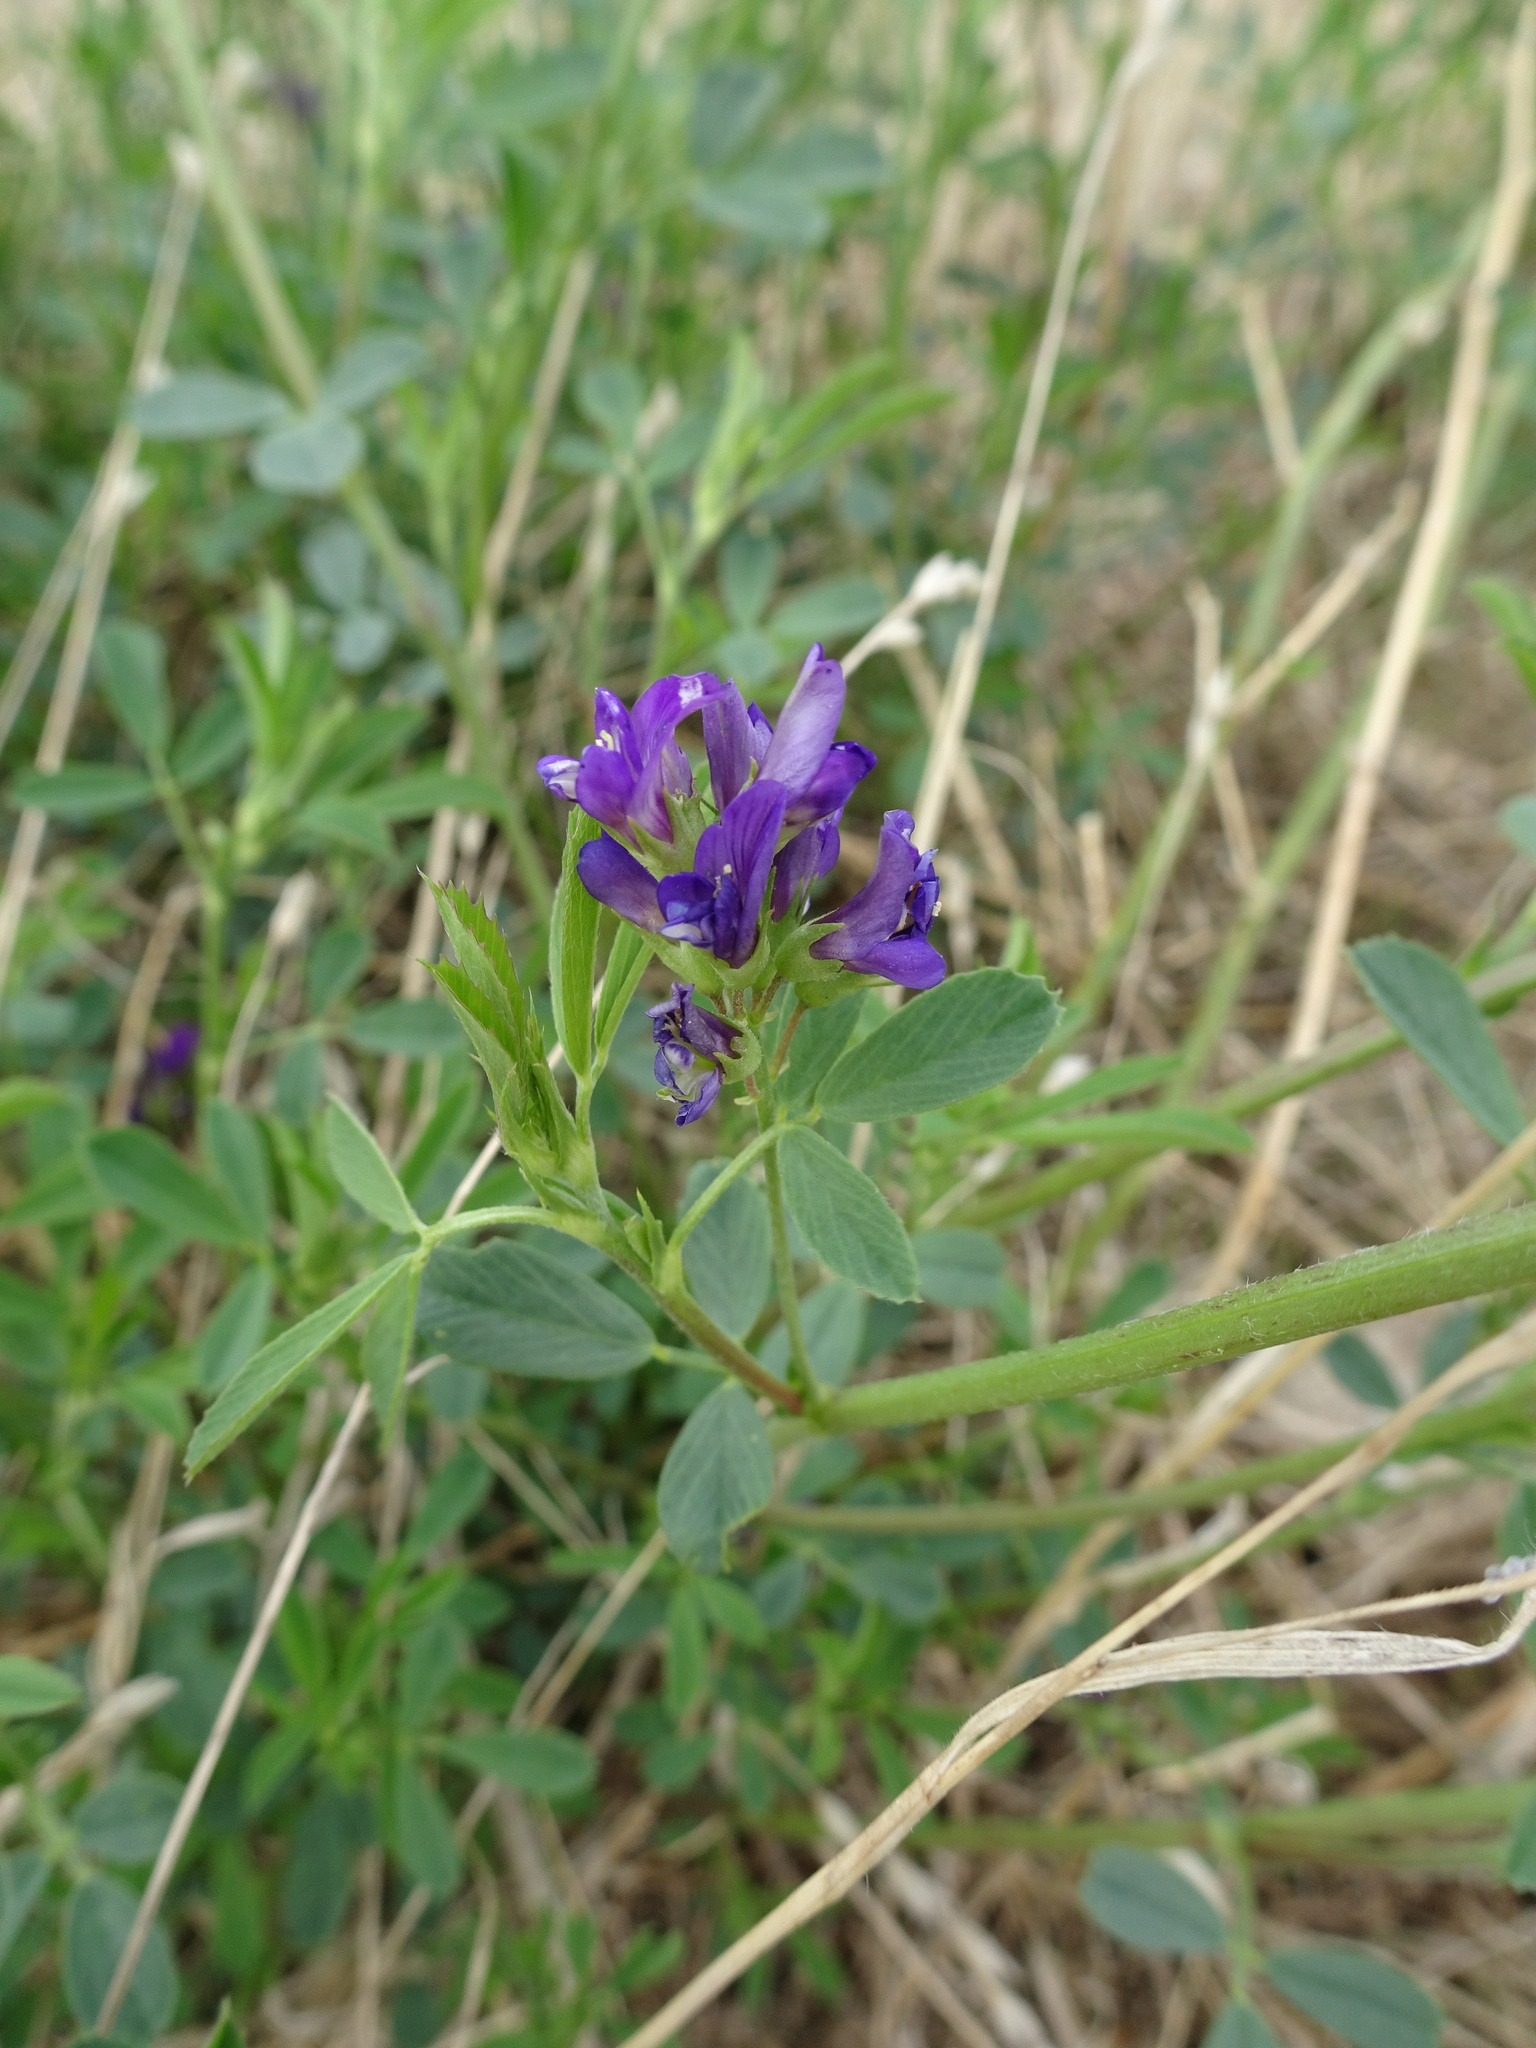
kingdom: Plantae
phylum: Tracheophyta
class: Magnoliopsida
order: Fabales
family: Fabaceae
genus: Medicago
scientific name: Medicago sativa
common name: Alfalfa
